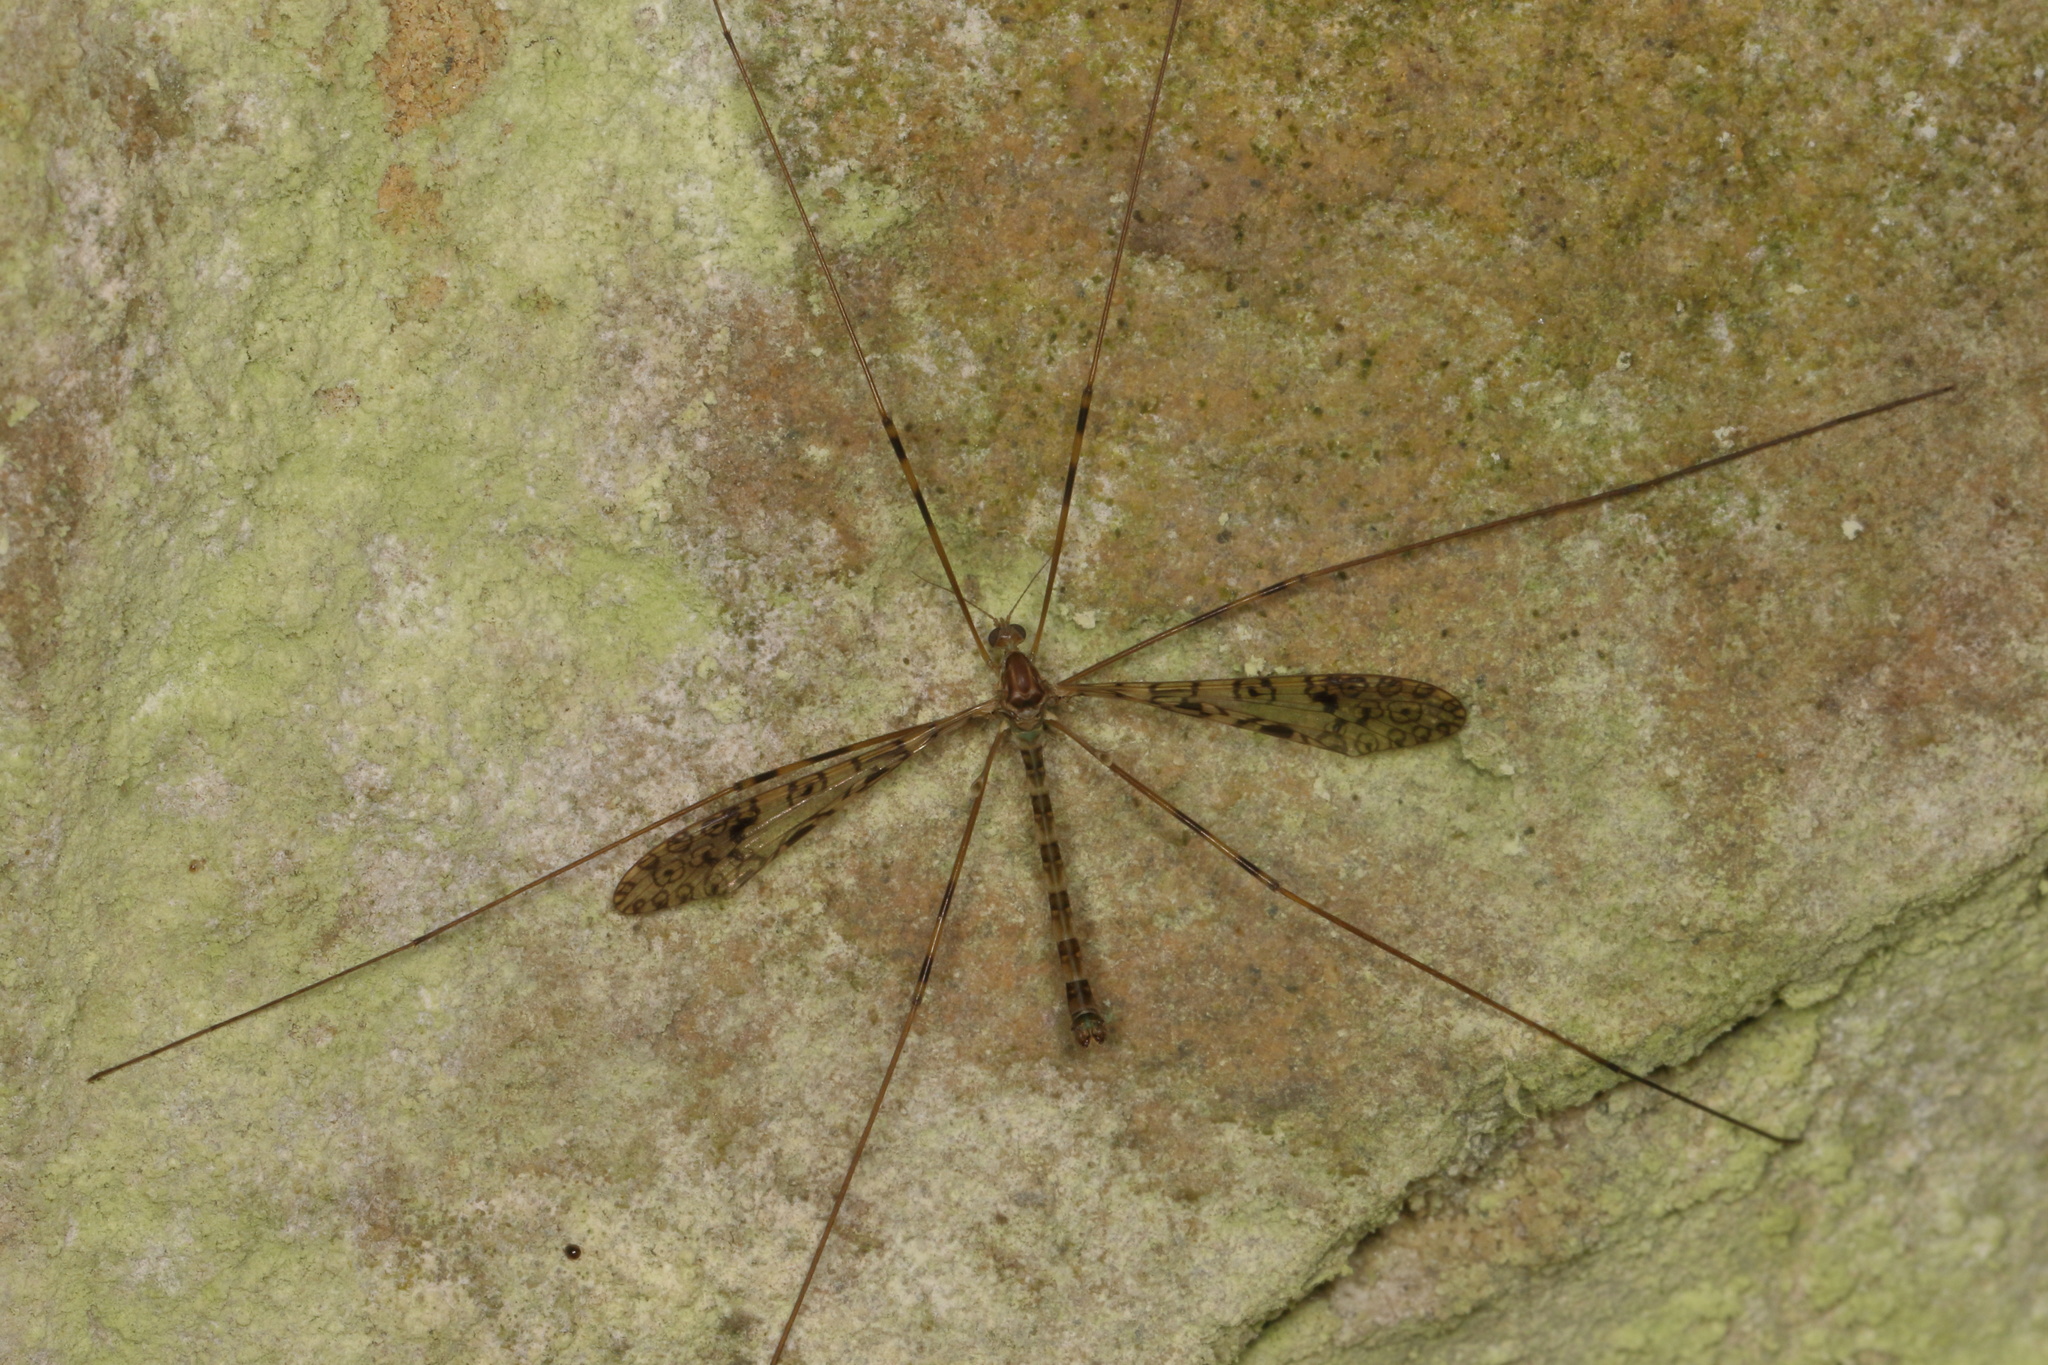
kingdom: Animalia
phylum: Arthropoda
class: Insecta
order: Diptera
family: Limoniidae
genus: Austrolimnophila
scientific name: Austrolimnophila argus
